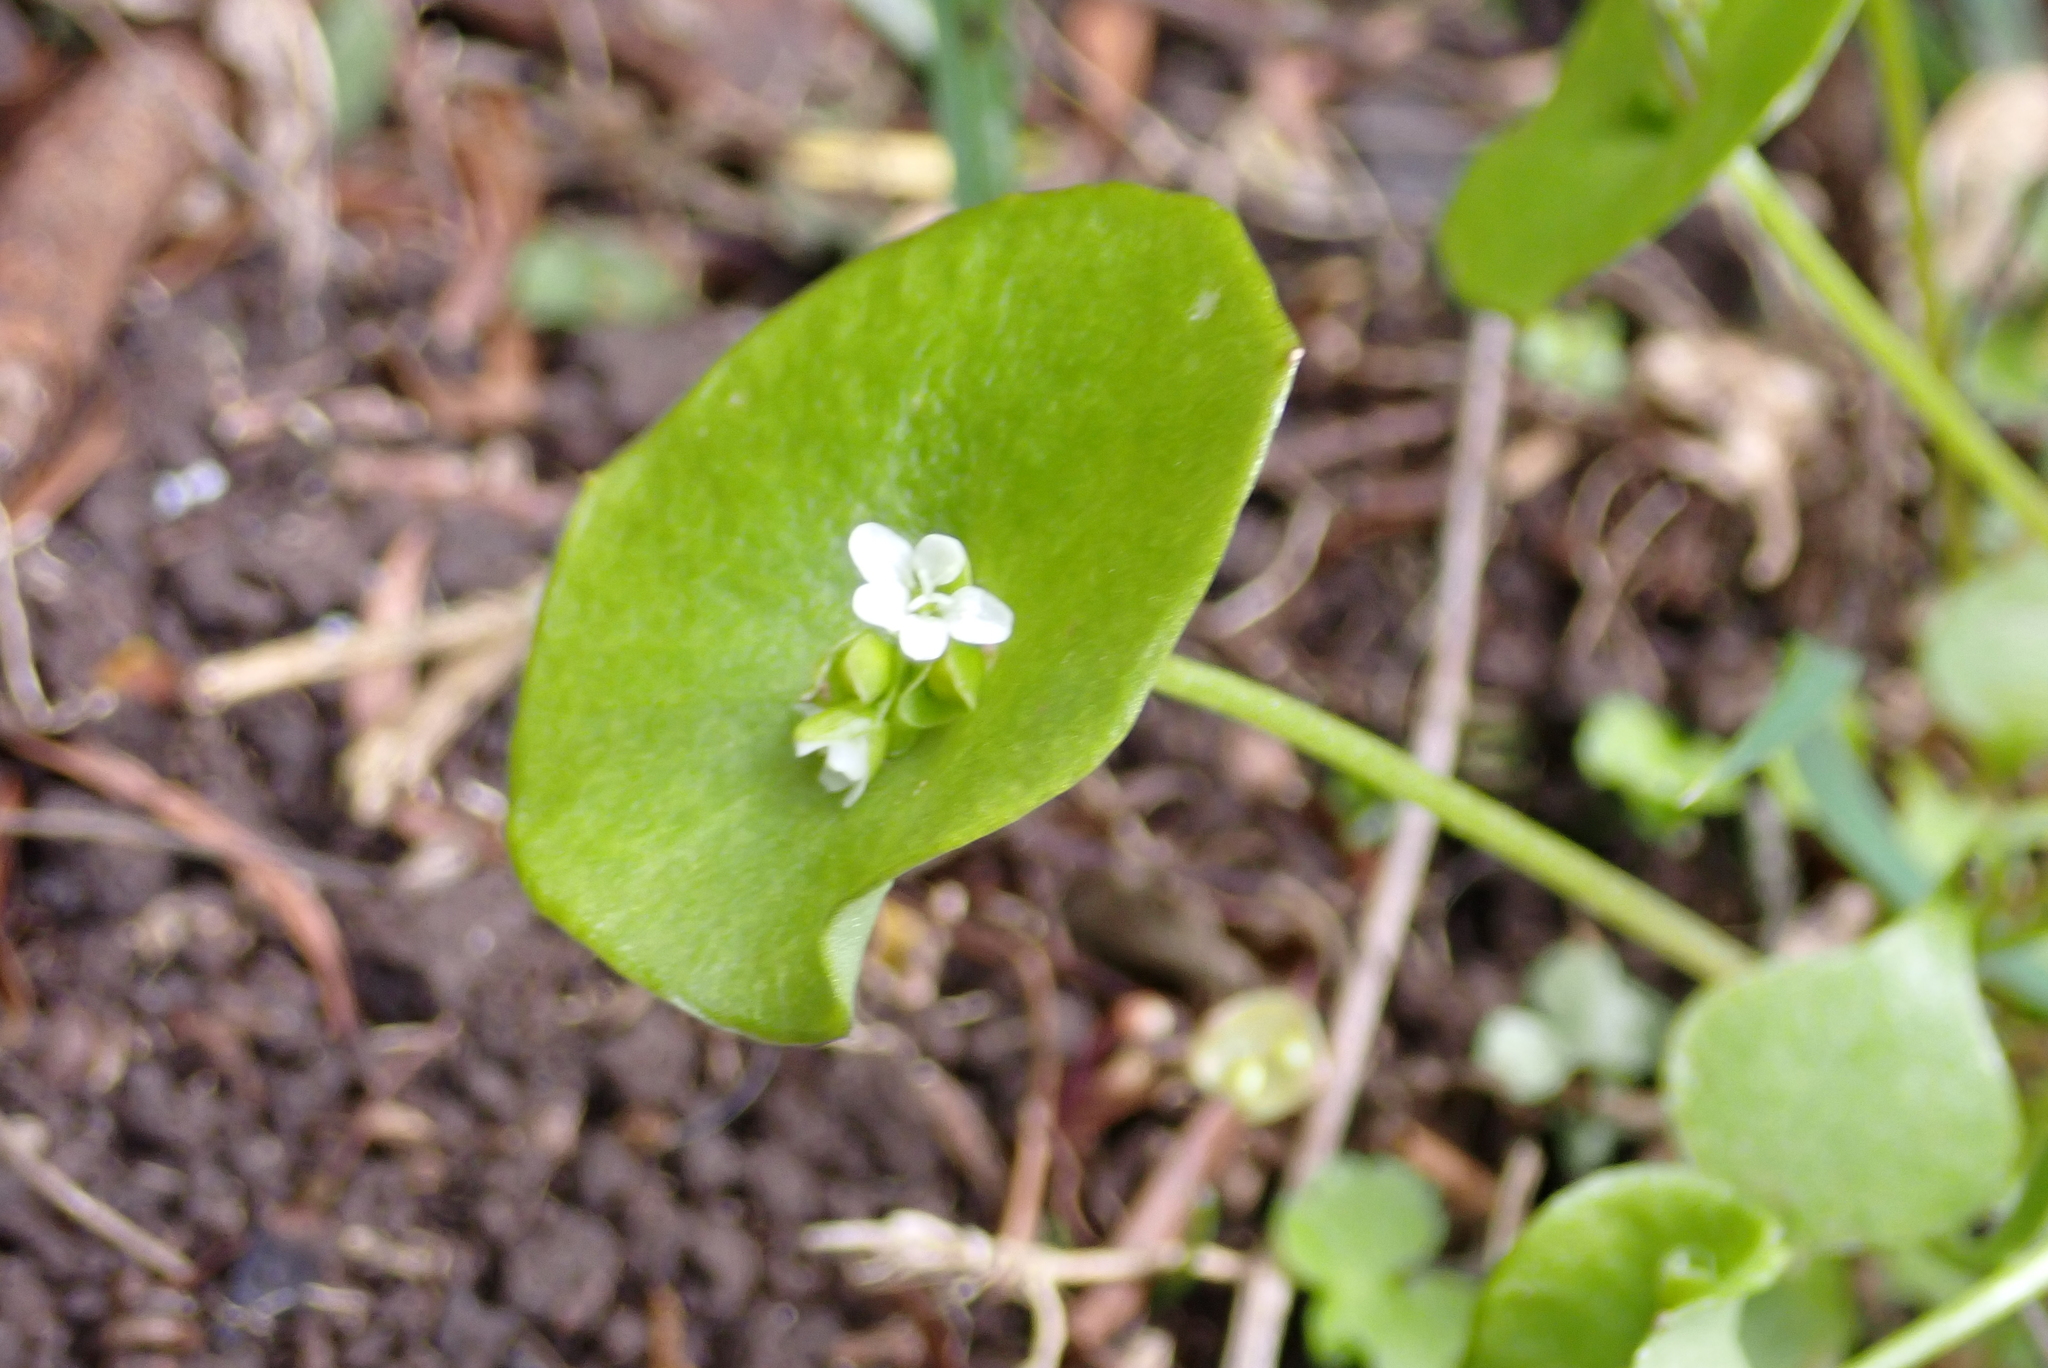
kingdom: Plantae
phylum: Tracheophyta
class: Magnoliopsida
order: Caryophyllales
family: Montiaceae
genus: Claytonia
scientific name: Claytonia perfoliata
